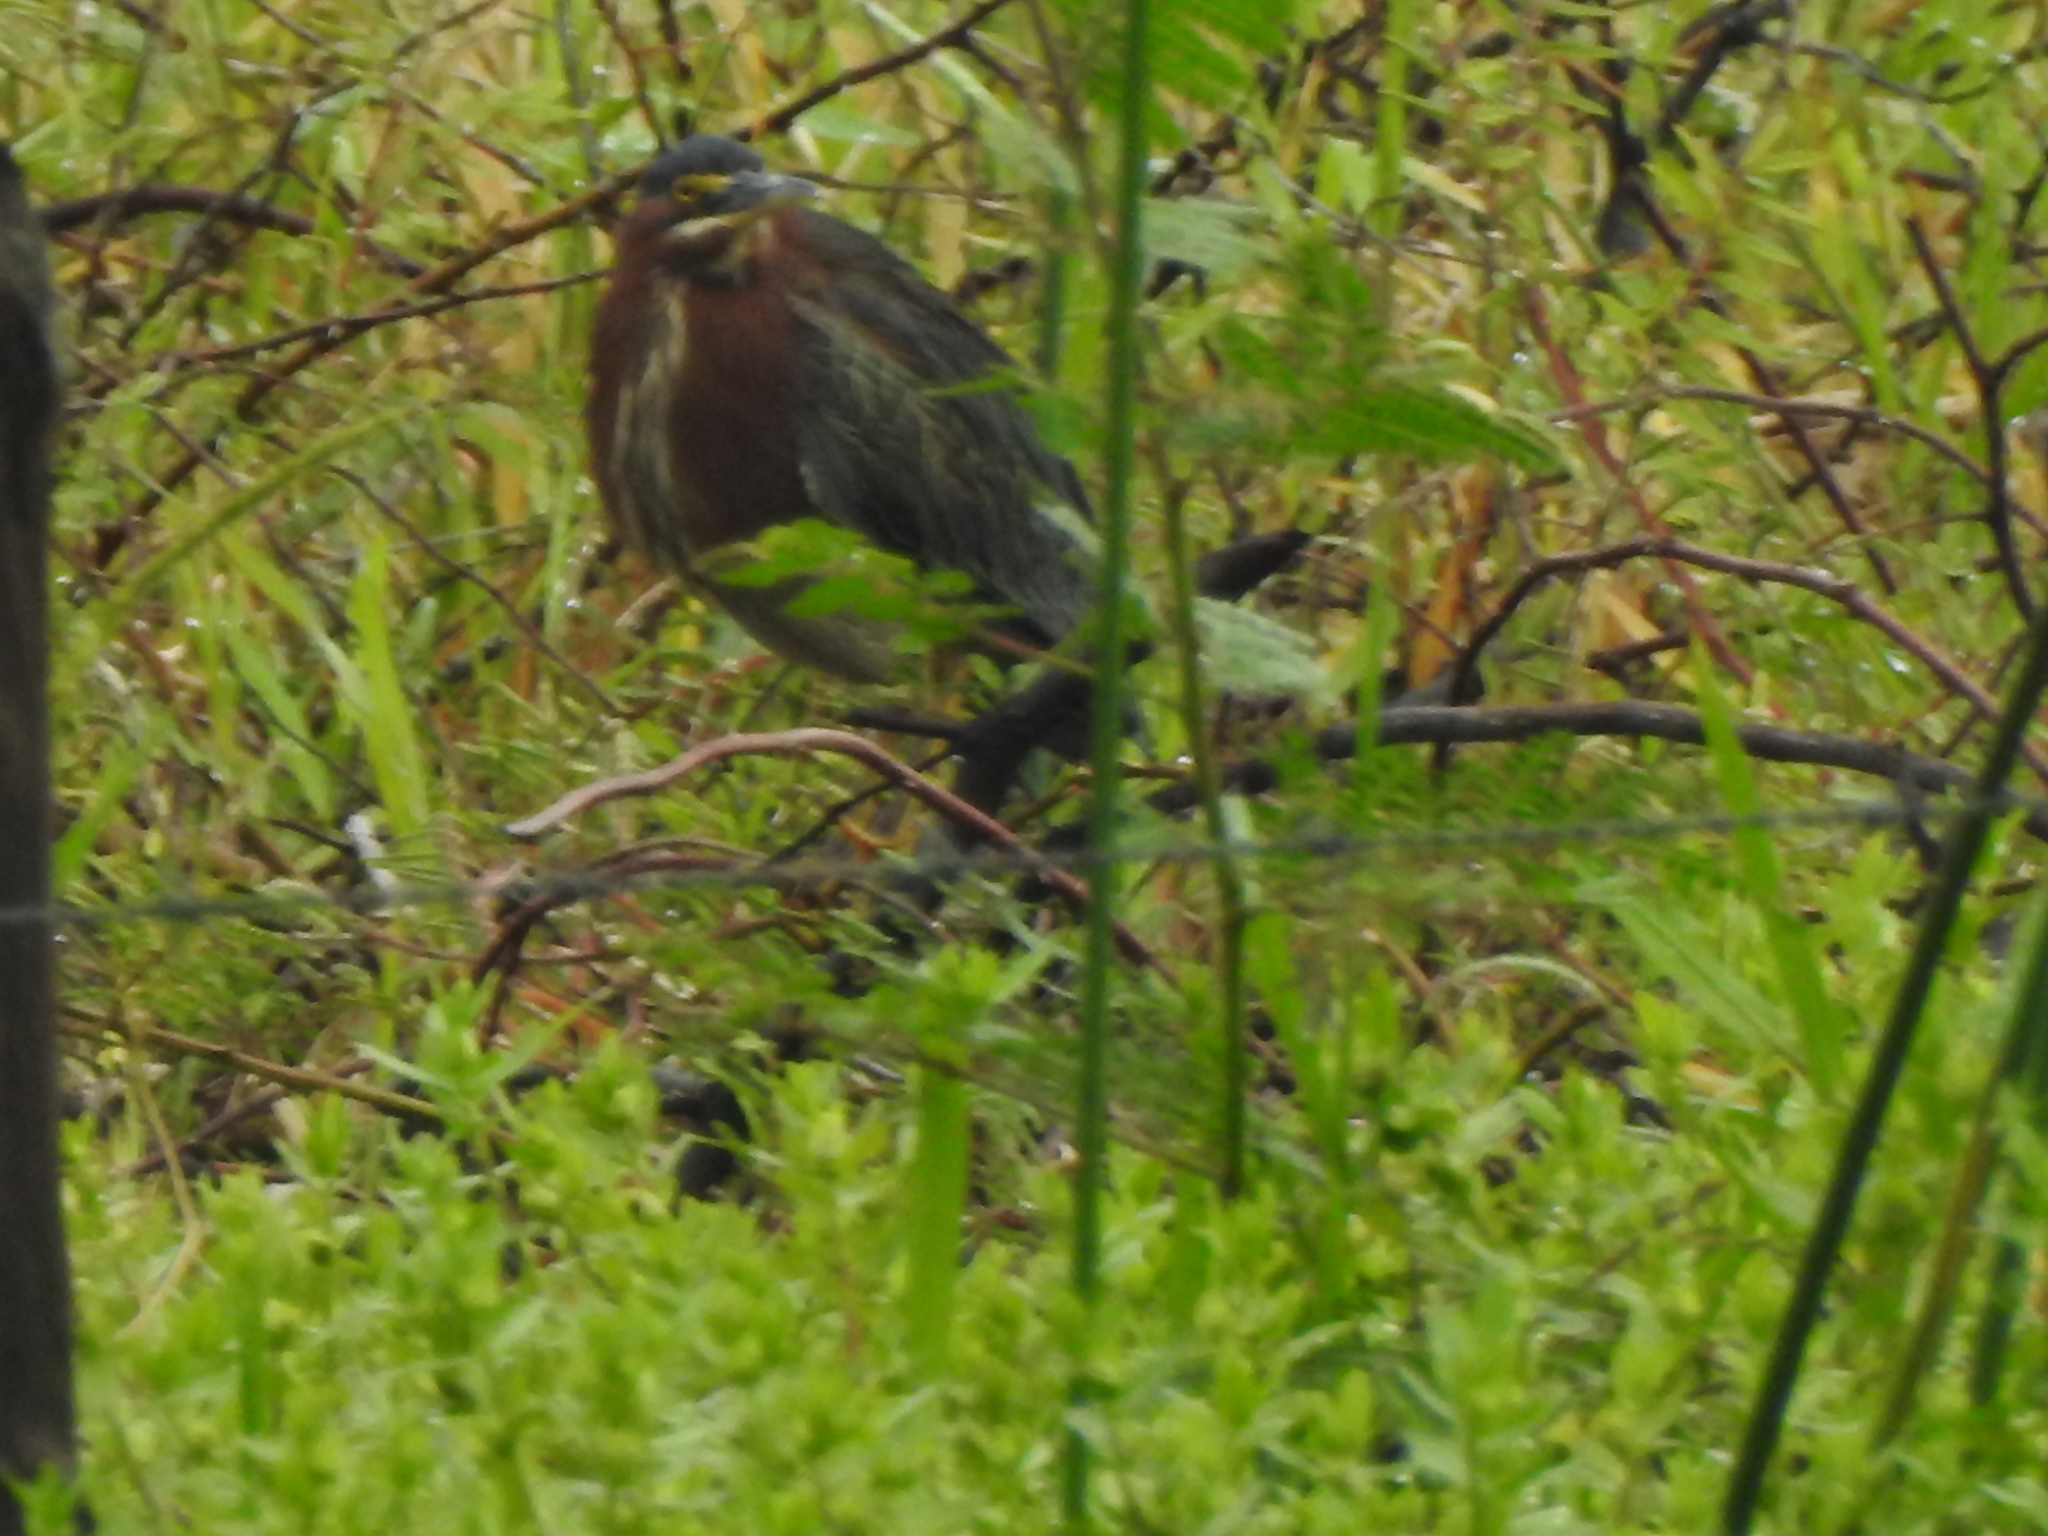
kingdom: Animalia
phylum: Chordata
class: Aves
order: Pelecaniformes
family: Ardeidae
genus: Butorides
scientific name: Butorides virescens
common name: Green heron
